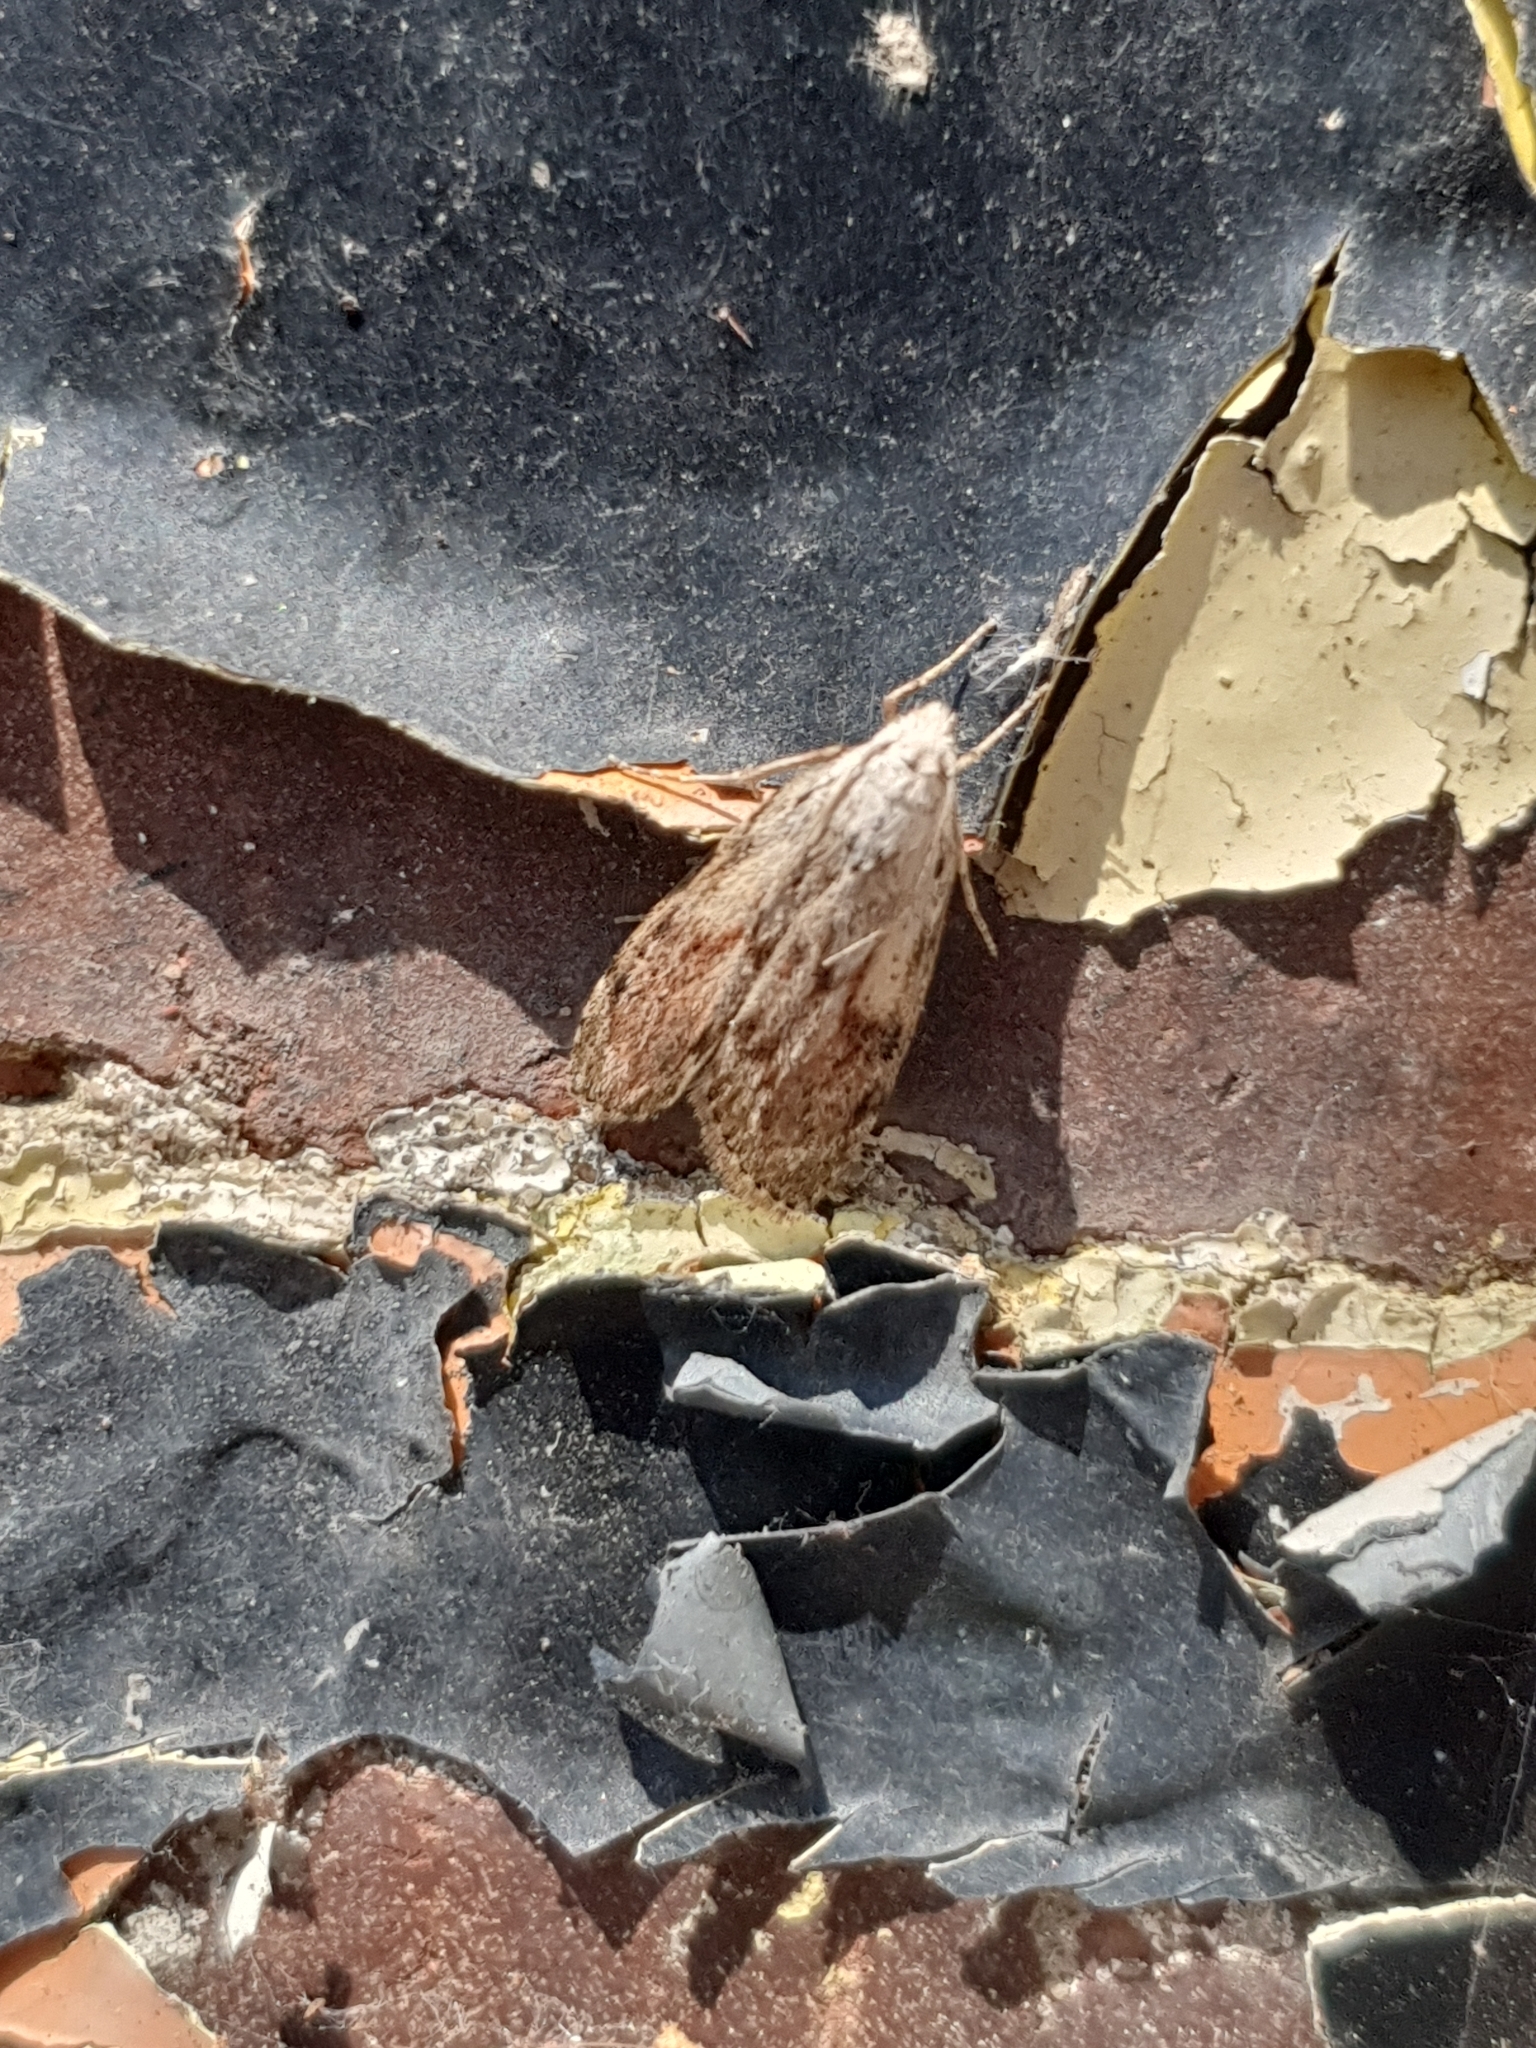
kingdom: Animalia
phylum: Arthropoda
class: Insecta
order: Lepidoptera
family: Pyralidae
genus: Aphomia
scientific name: Aphomia sociella
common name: Bee moth
